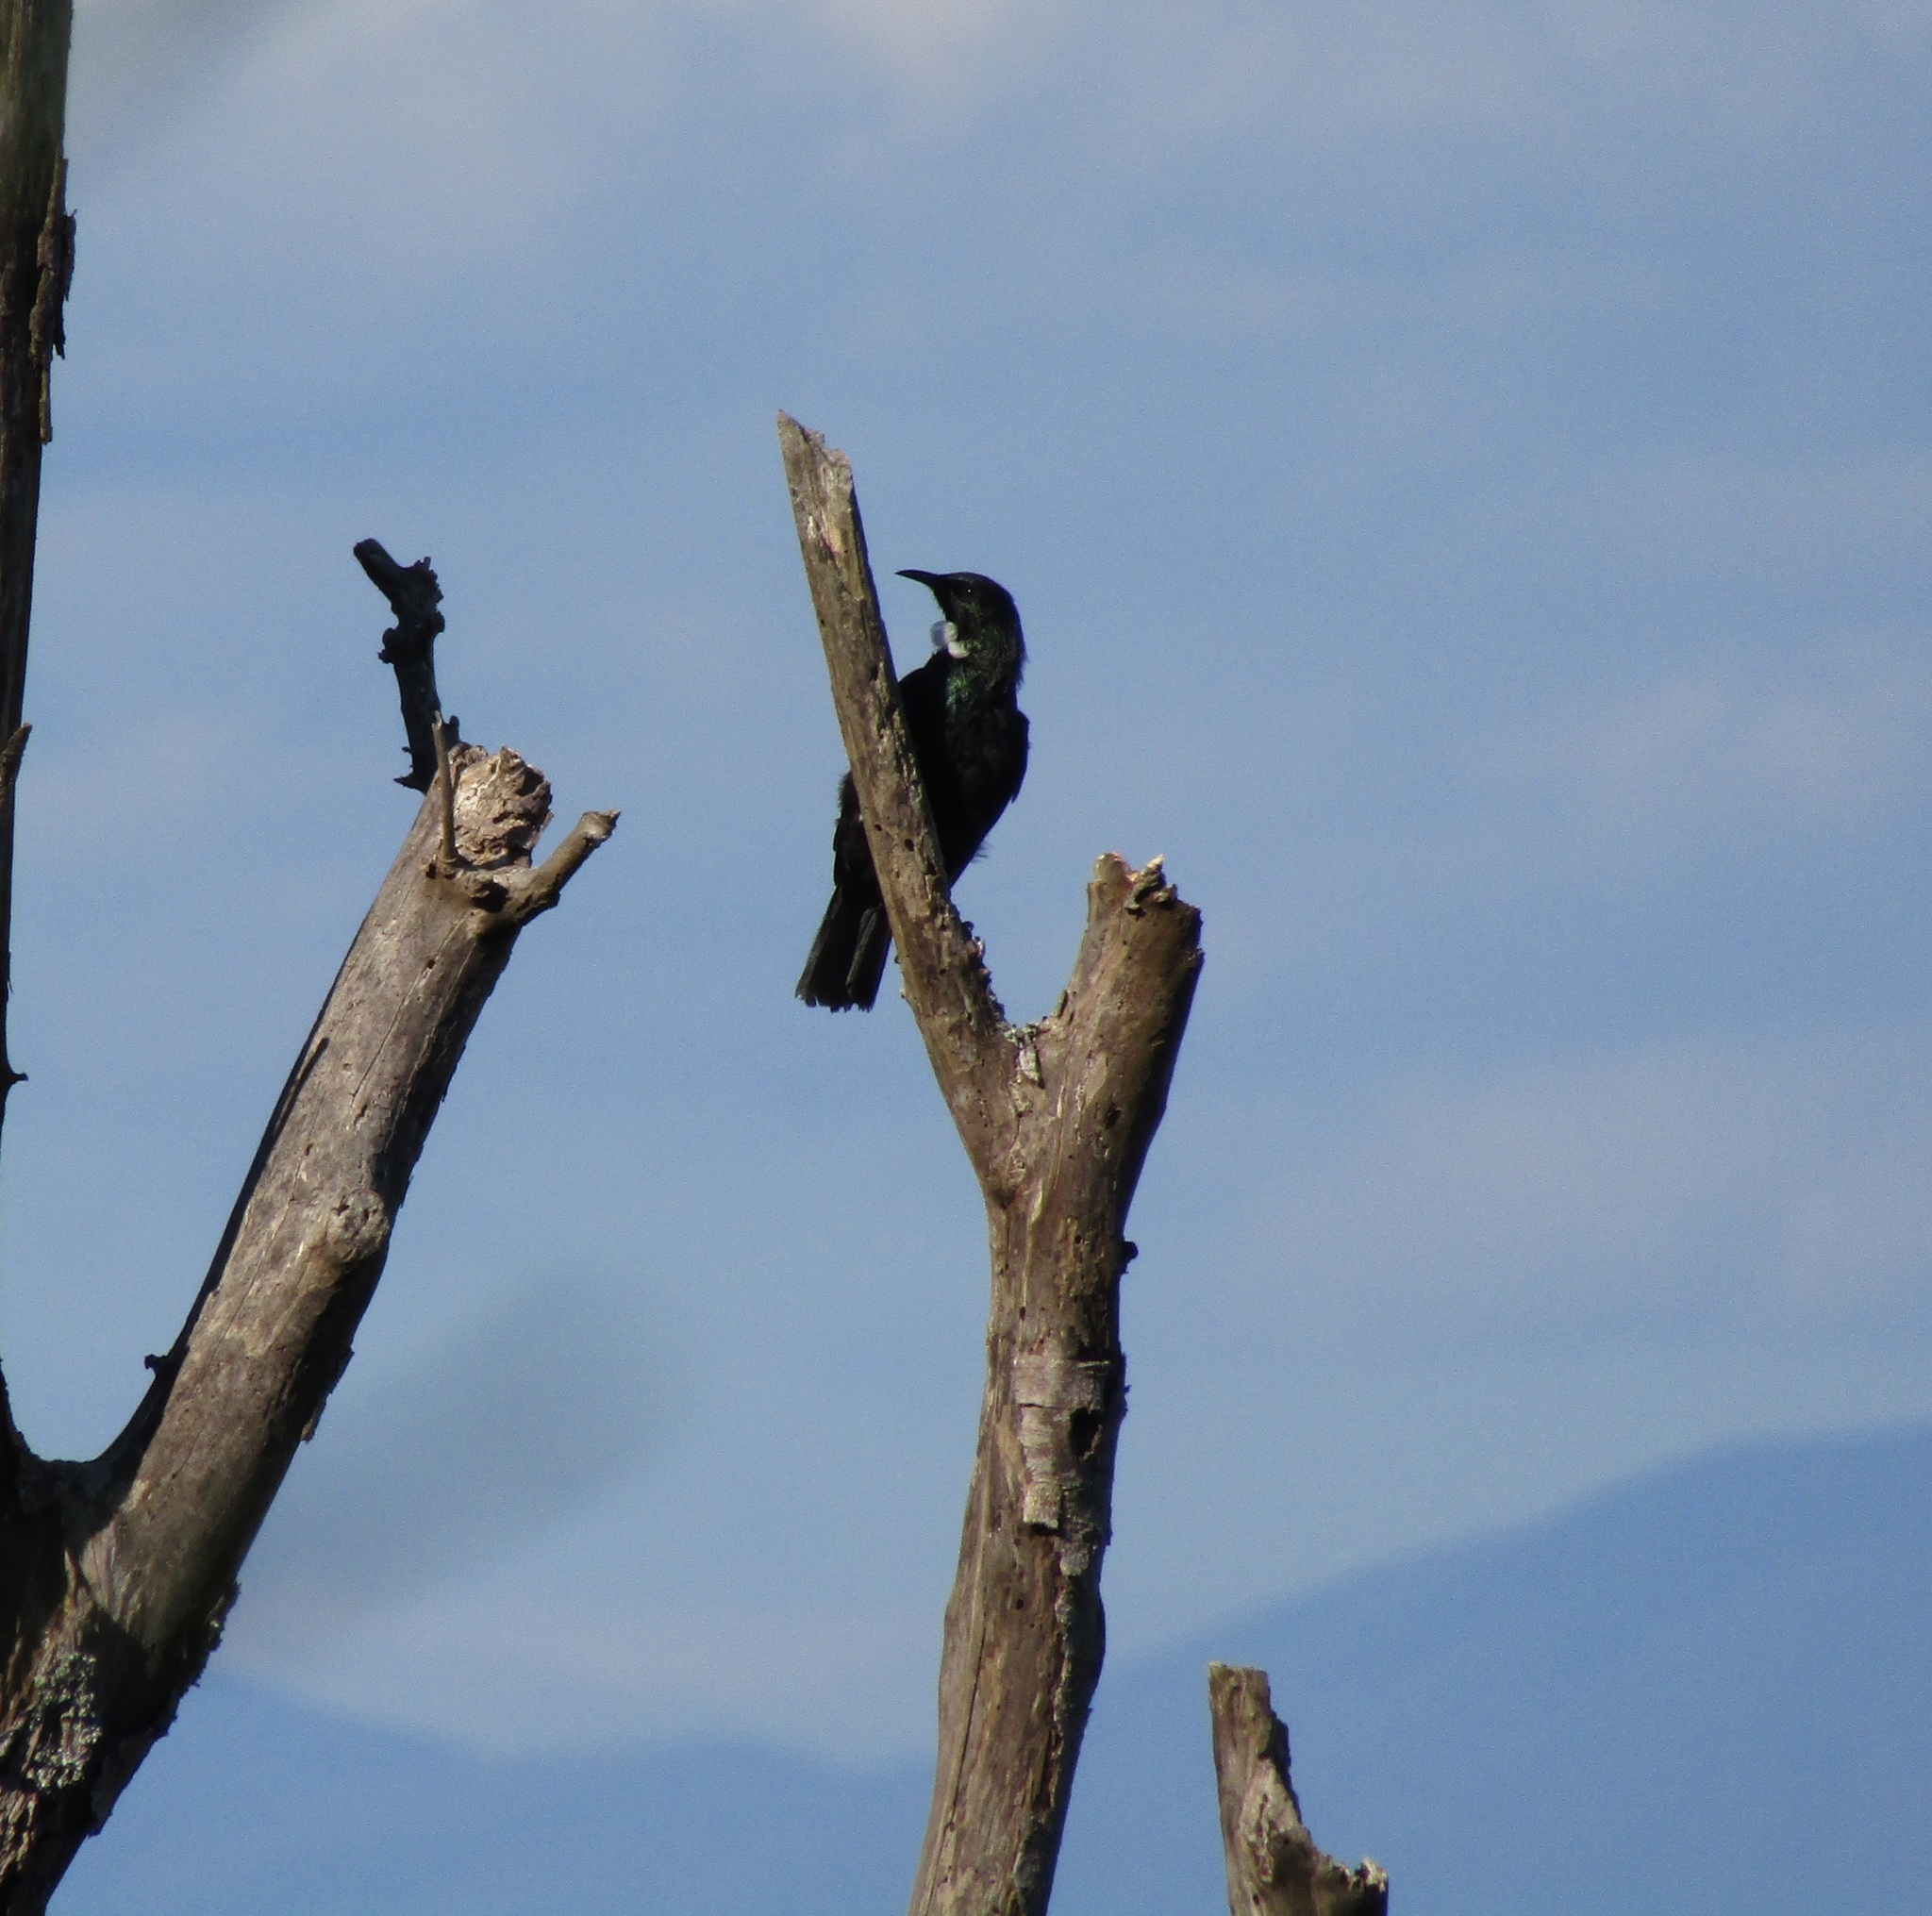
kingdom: Animalia
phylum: Chordata
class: Aves
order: Passeriformes
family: Meliphagidae
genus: Prosthemadera
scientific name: Prosthemadera novaeseelandiae
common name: Tui
